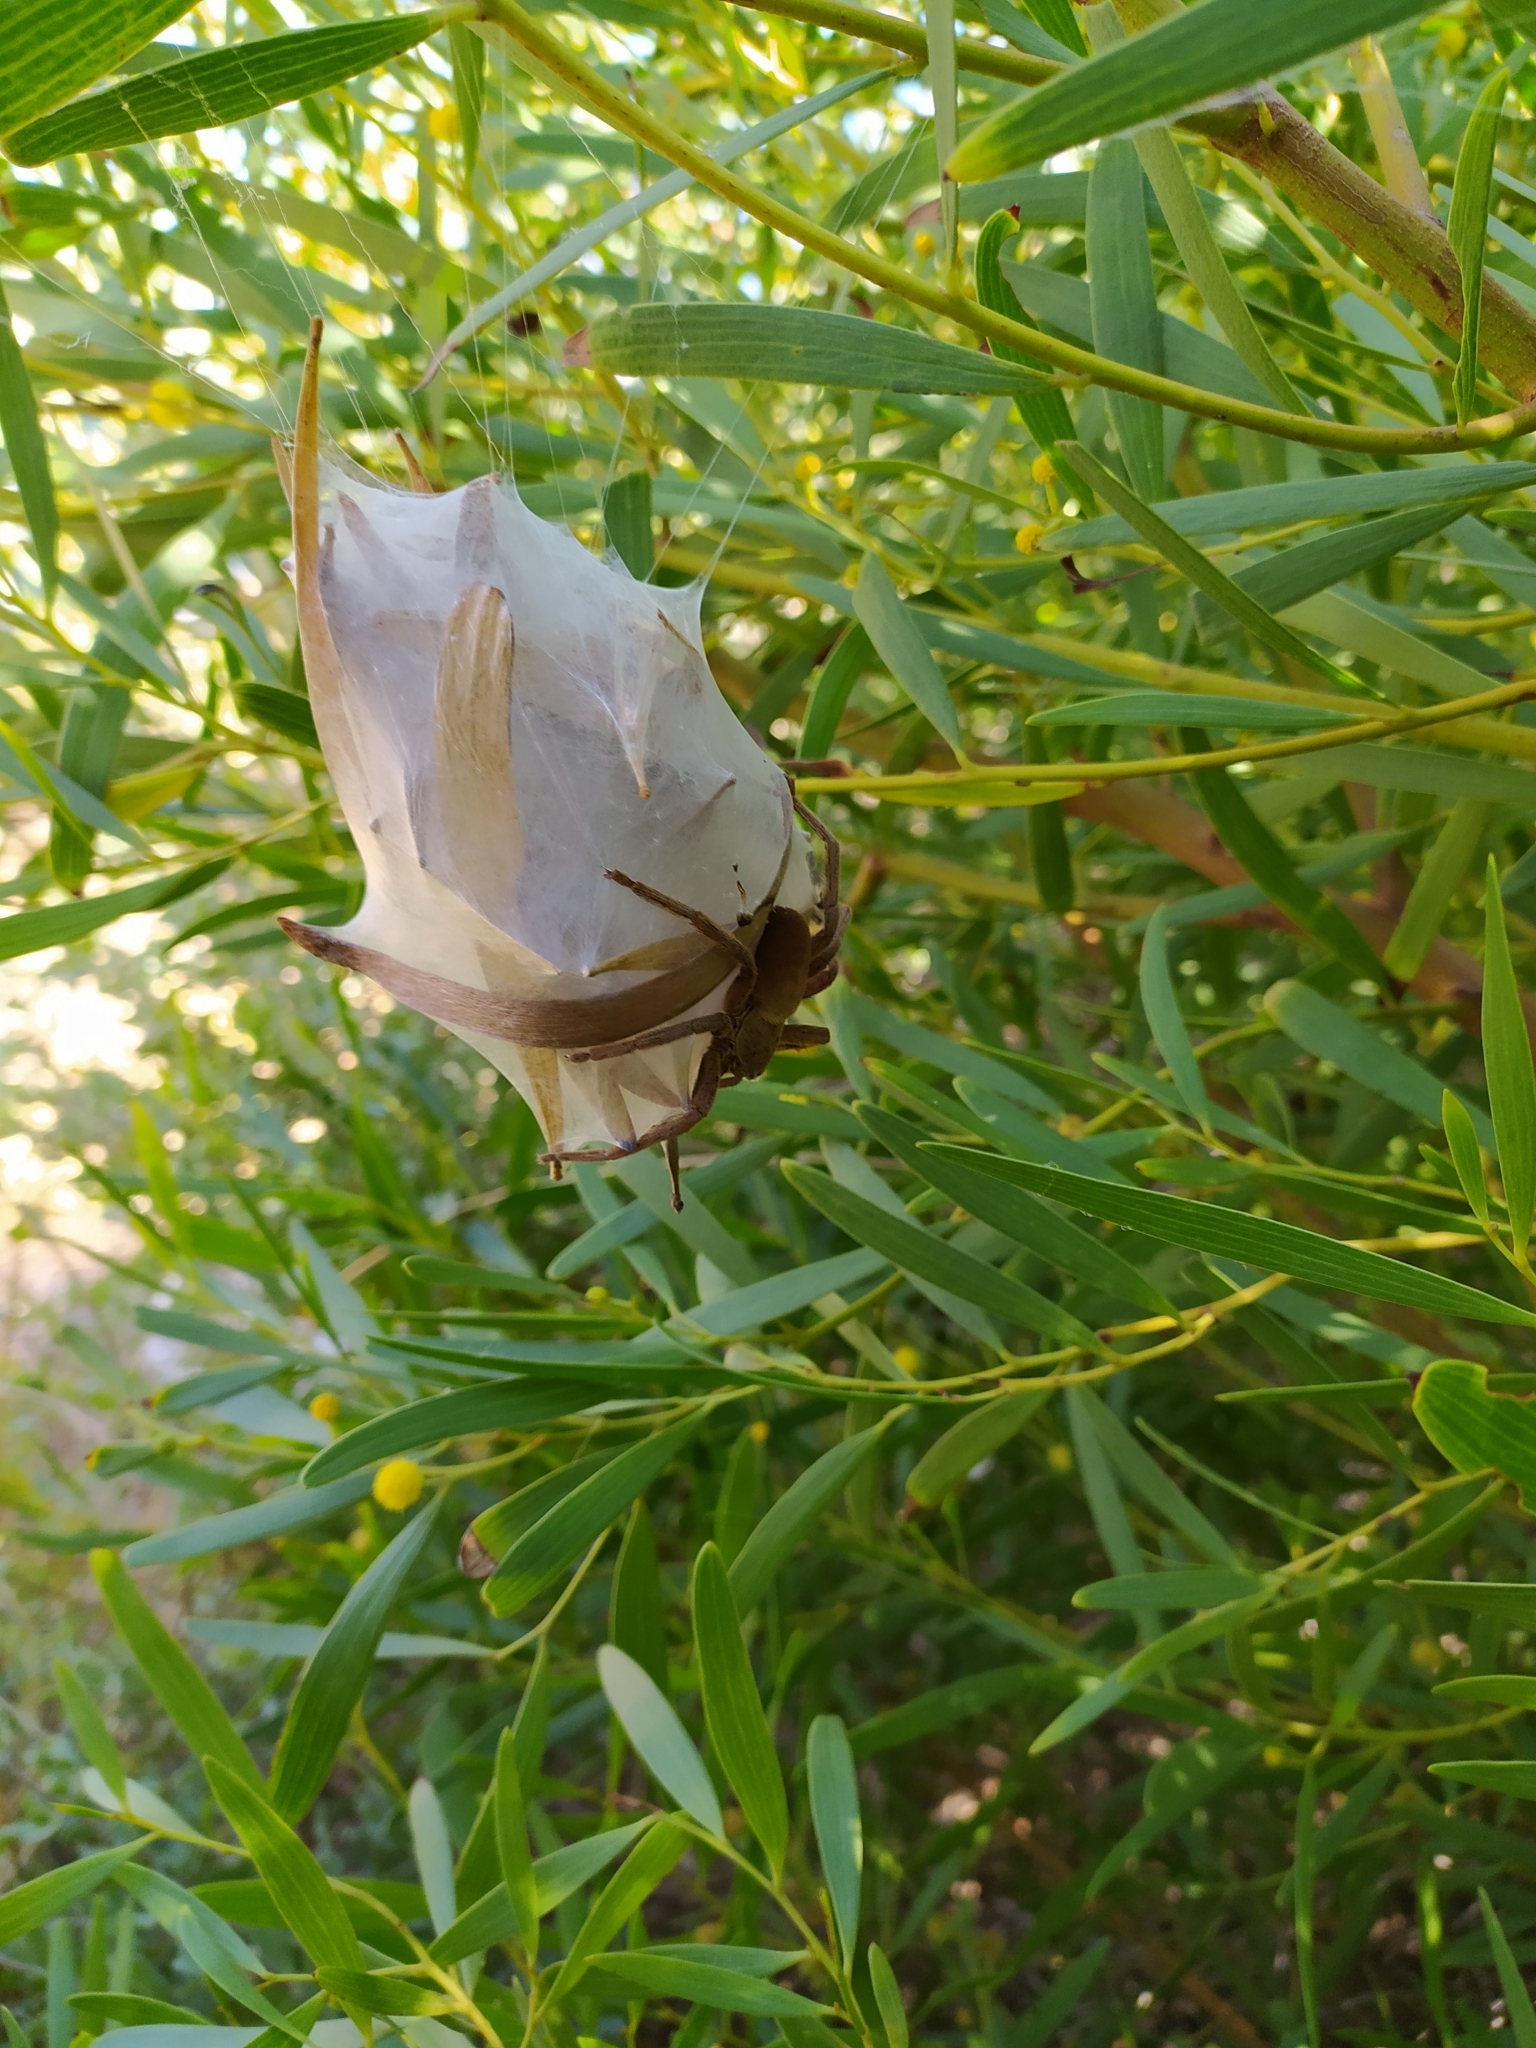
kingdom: Animalia
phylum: Arthropoda
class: Arachnida
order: Araneae
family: Sparassidae
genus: Palystes
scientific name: Palystes superciliosus
